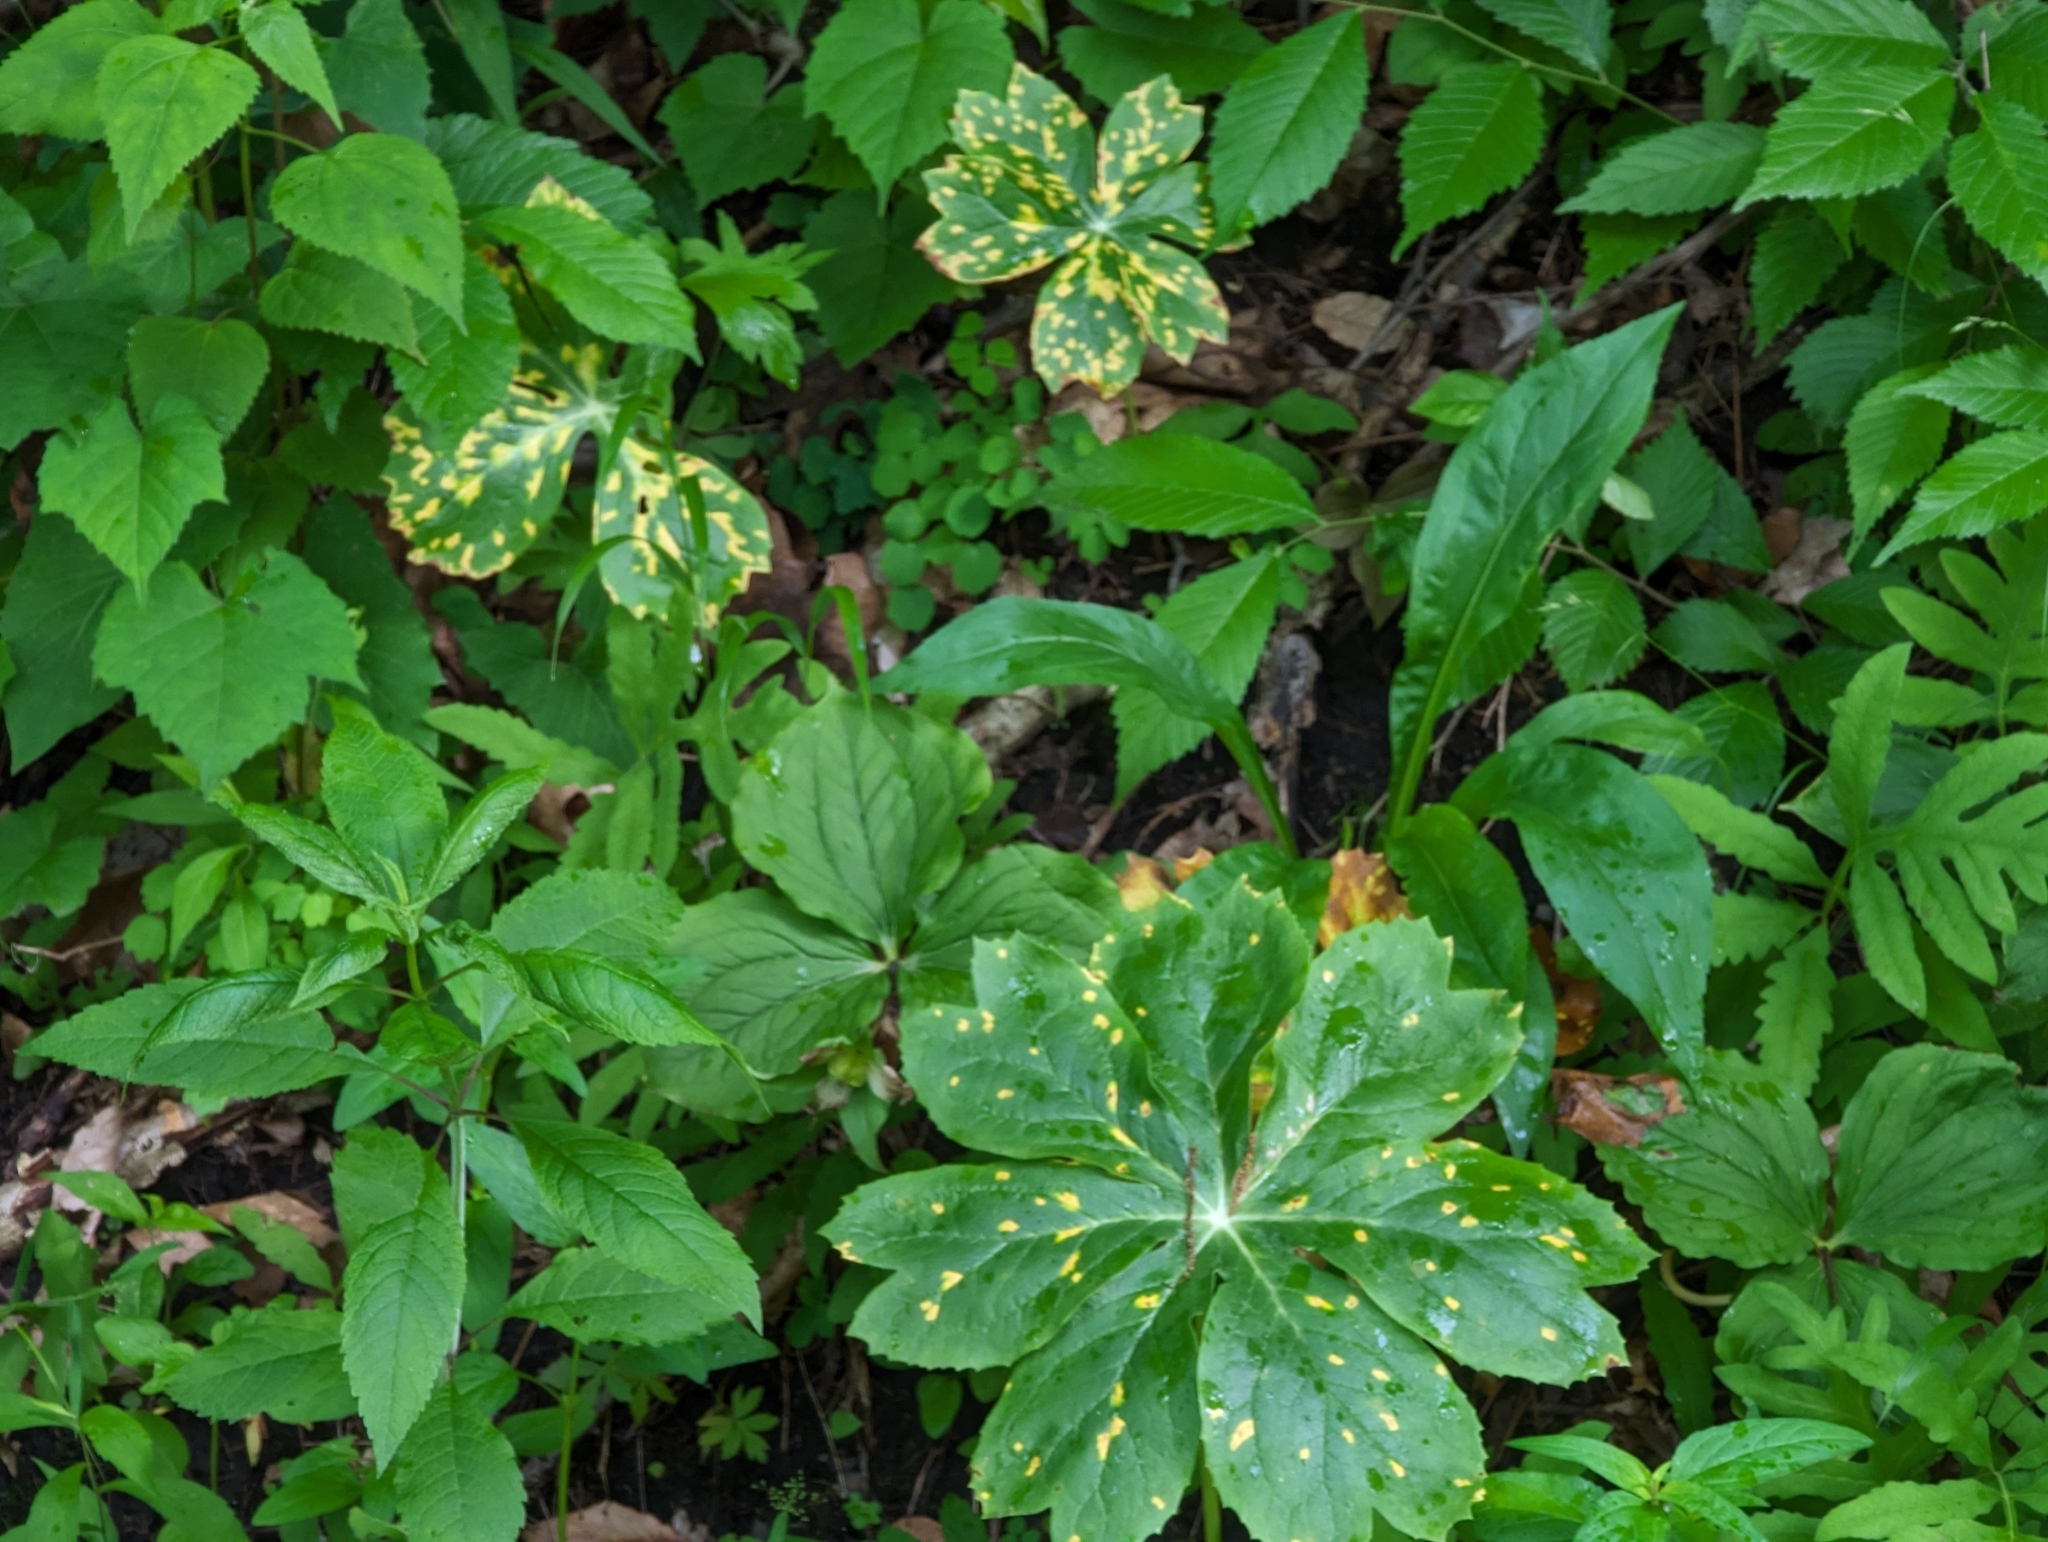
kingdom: Plantae
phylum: Tracheophyta
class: Magnoliopsida
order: Ranunculales
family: Berberidaceae
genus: Podophyllum
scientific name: Podophyllum peltatum
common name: Wild mandrake
